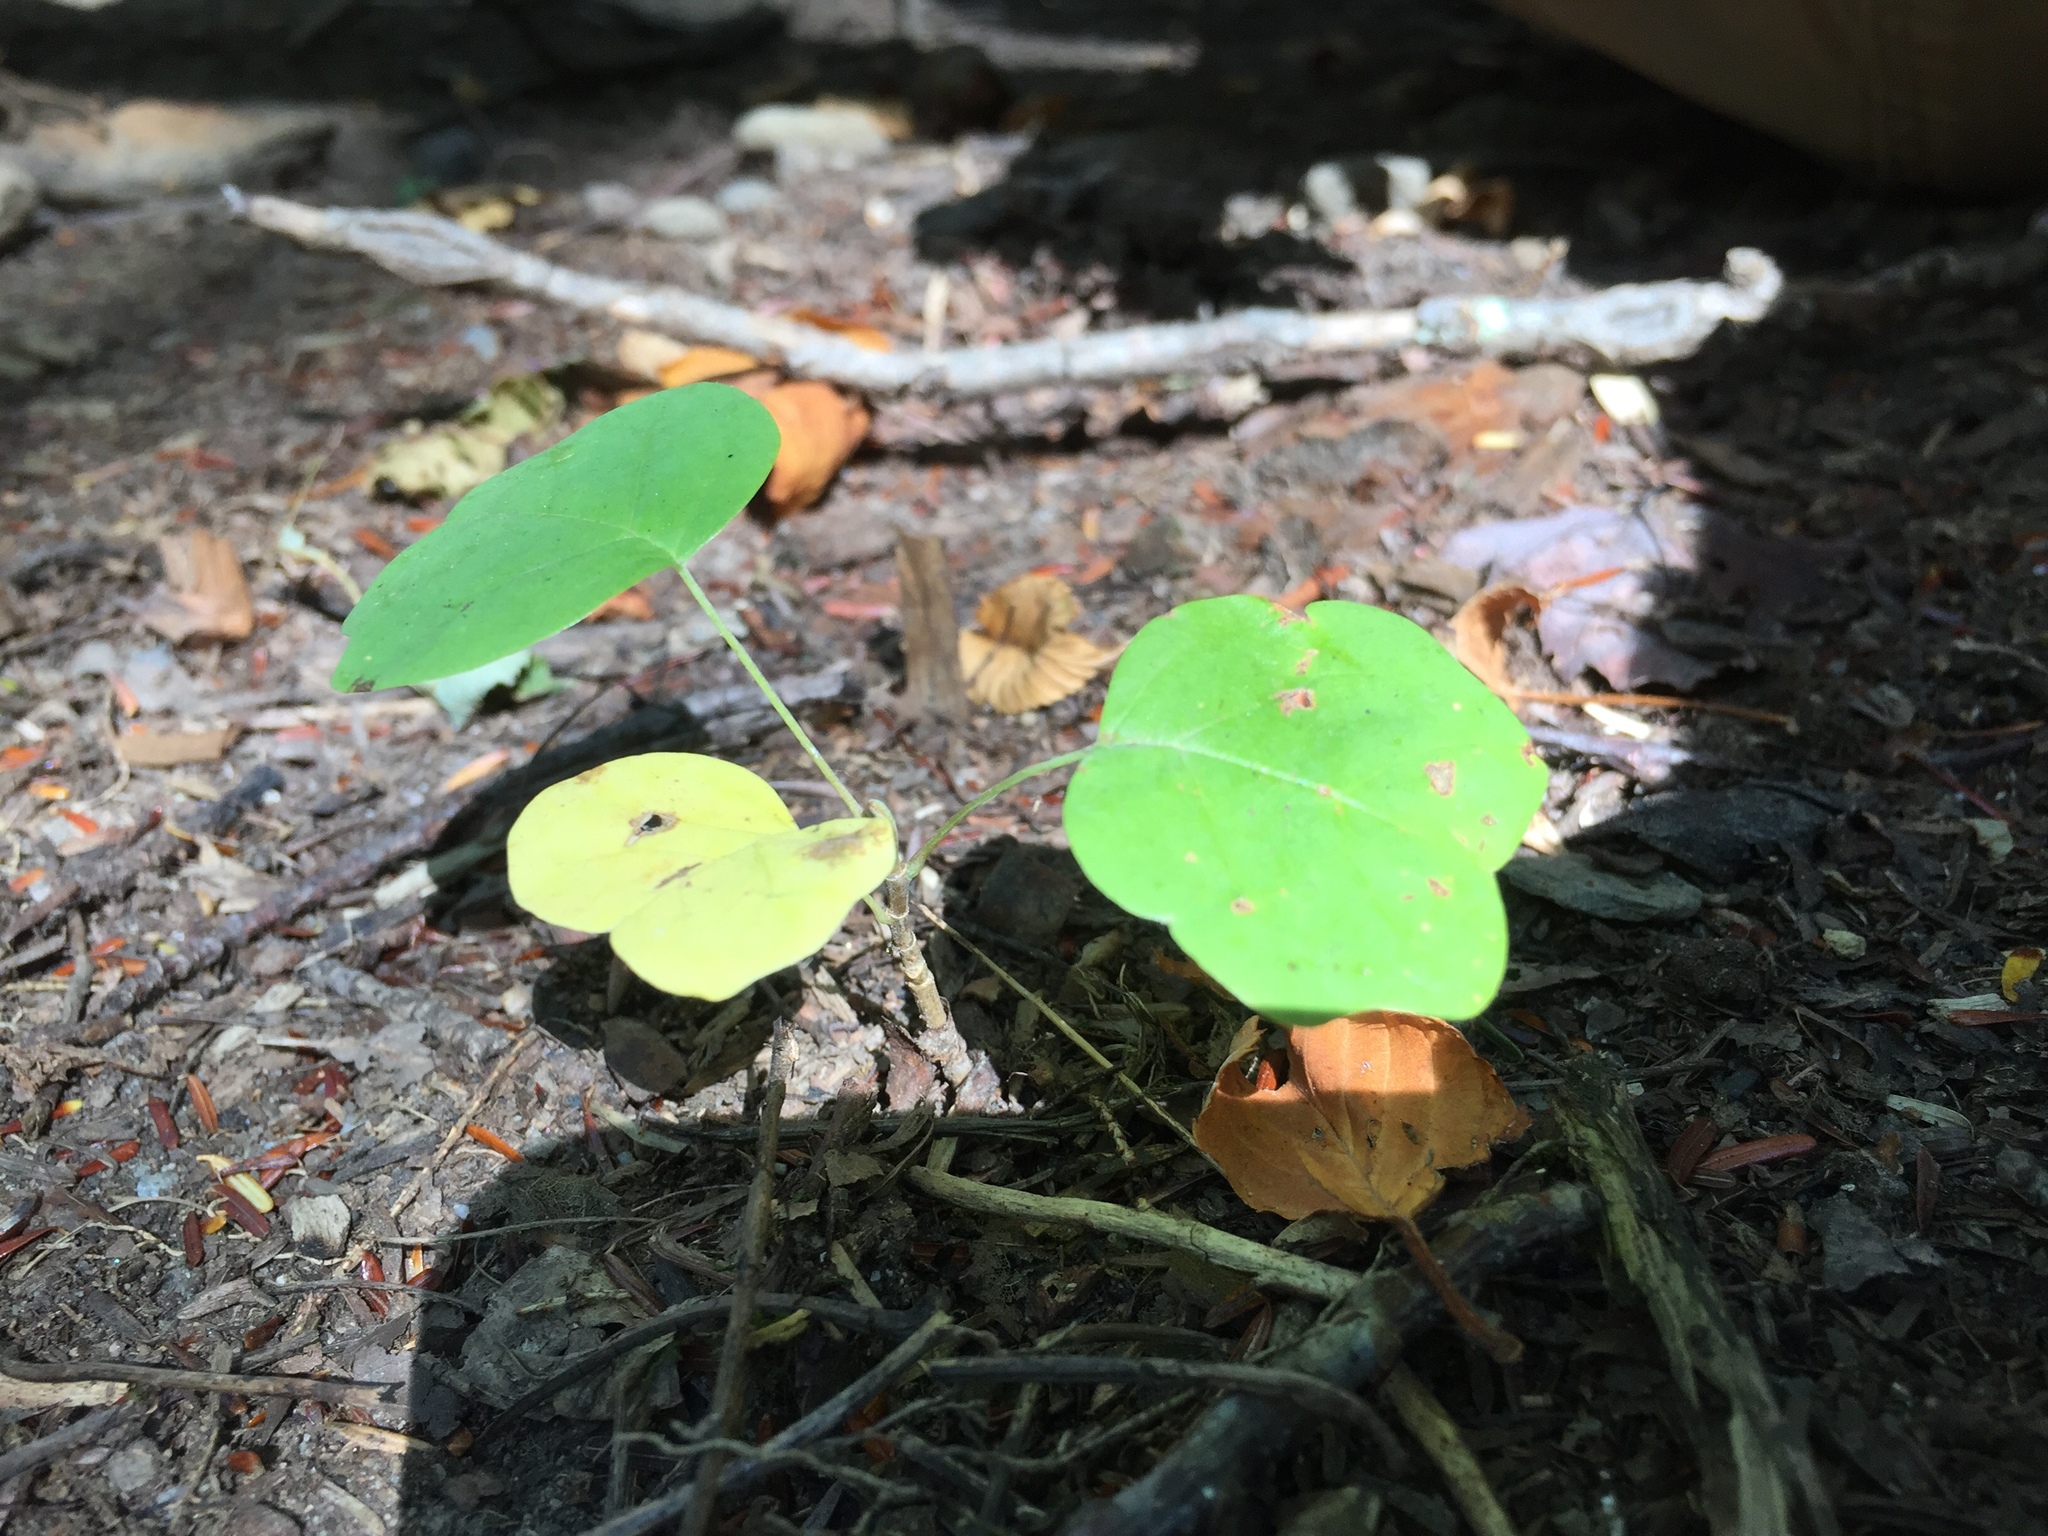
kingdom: Plantae
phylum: Tracheophyta
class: Magnoliopsida
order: Magnoliales
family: Magnoliaceae
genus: Liriodendron
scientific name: Liriodendron tulipifera
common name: Tulip tree
